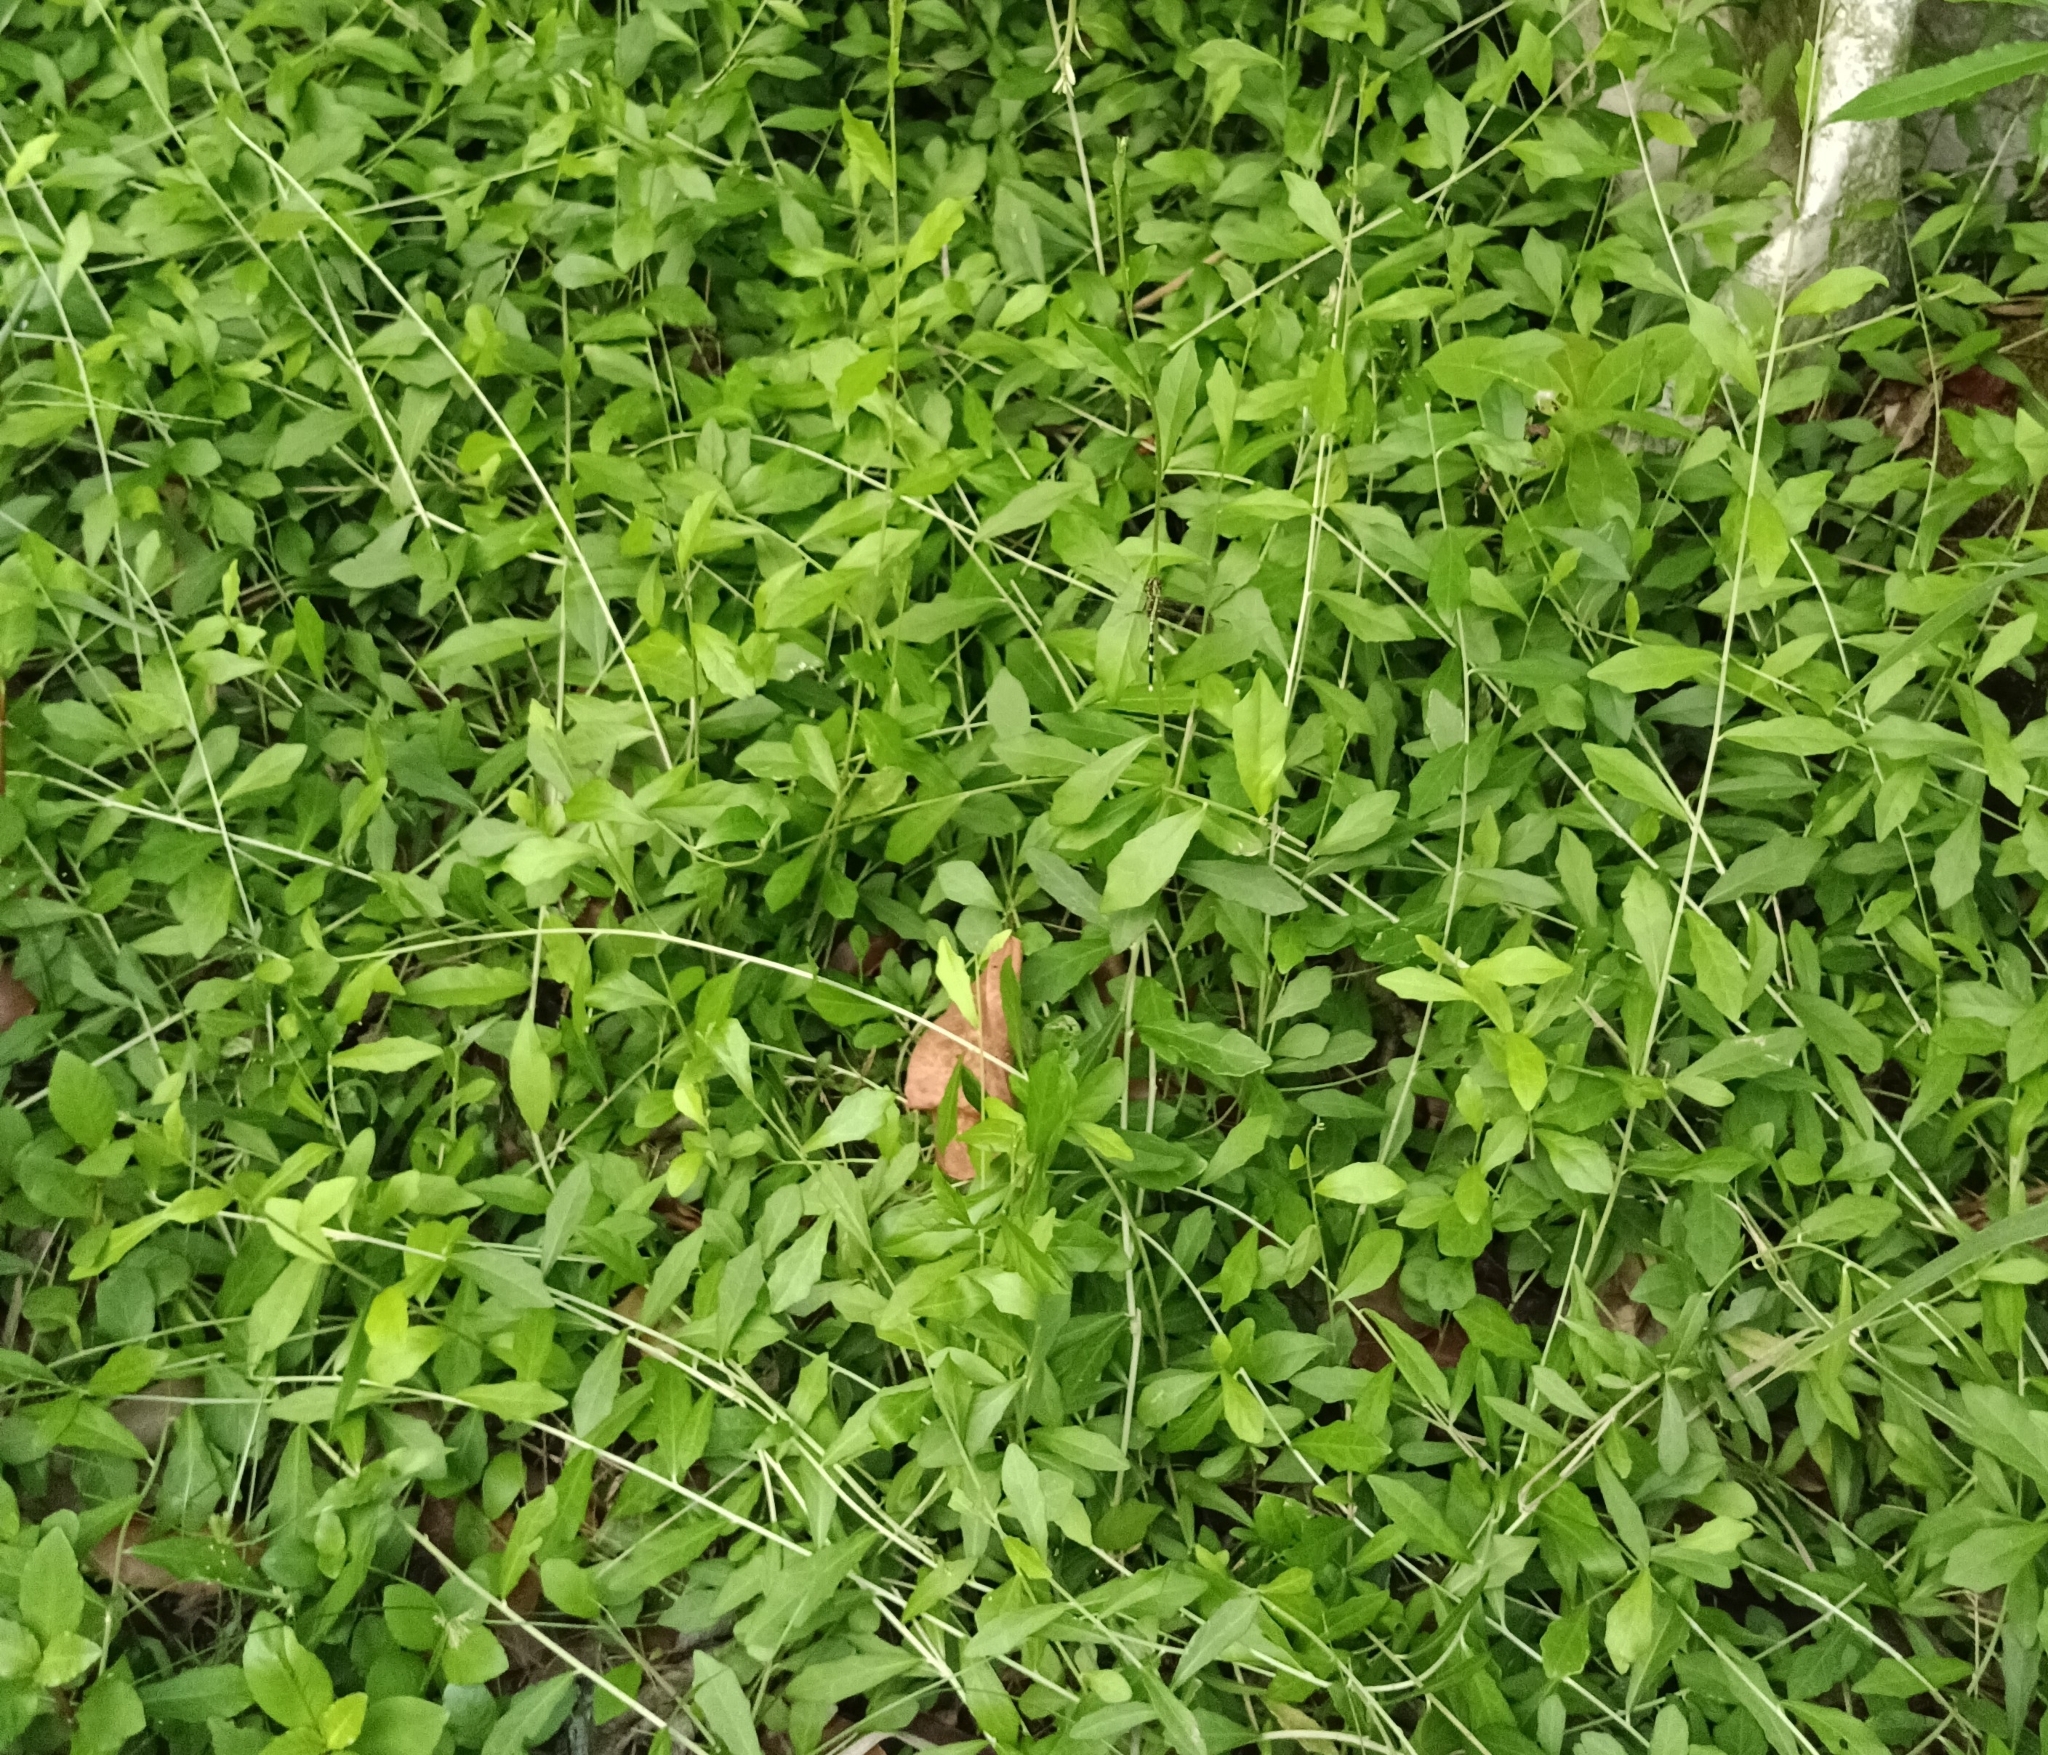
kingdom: Plantae
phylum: Tracheophyta
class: Magnoliopsida
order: Asterales
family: Asteraceae
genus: Tarlmounia
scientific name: Tarlmounia elliptica
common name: Kheua sa lot
